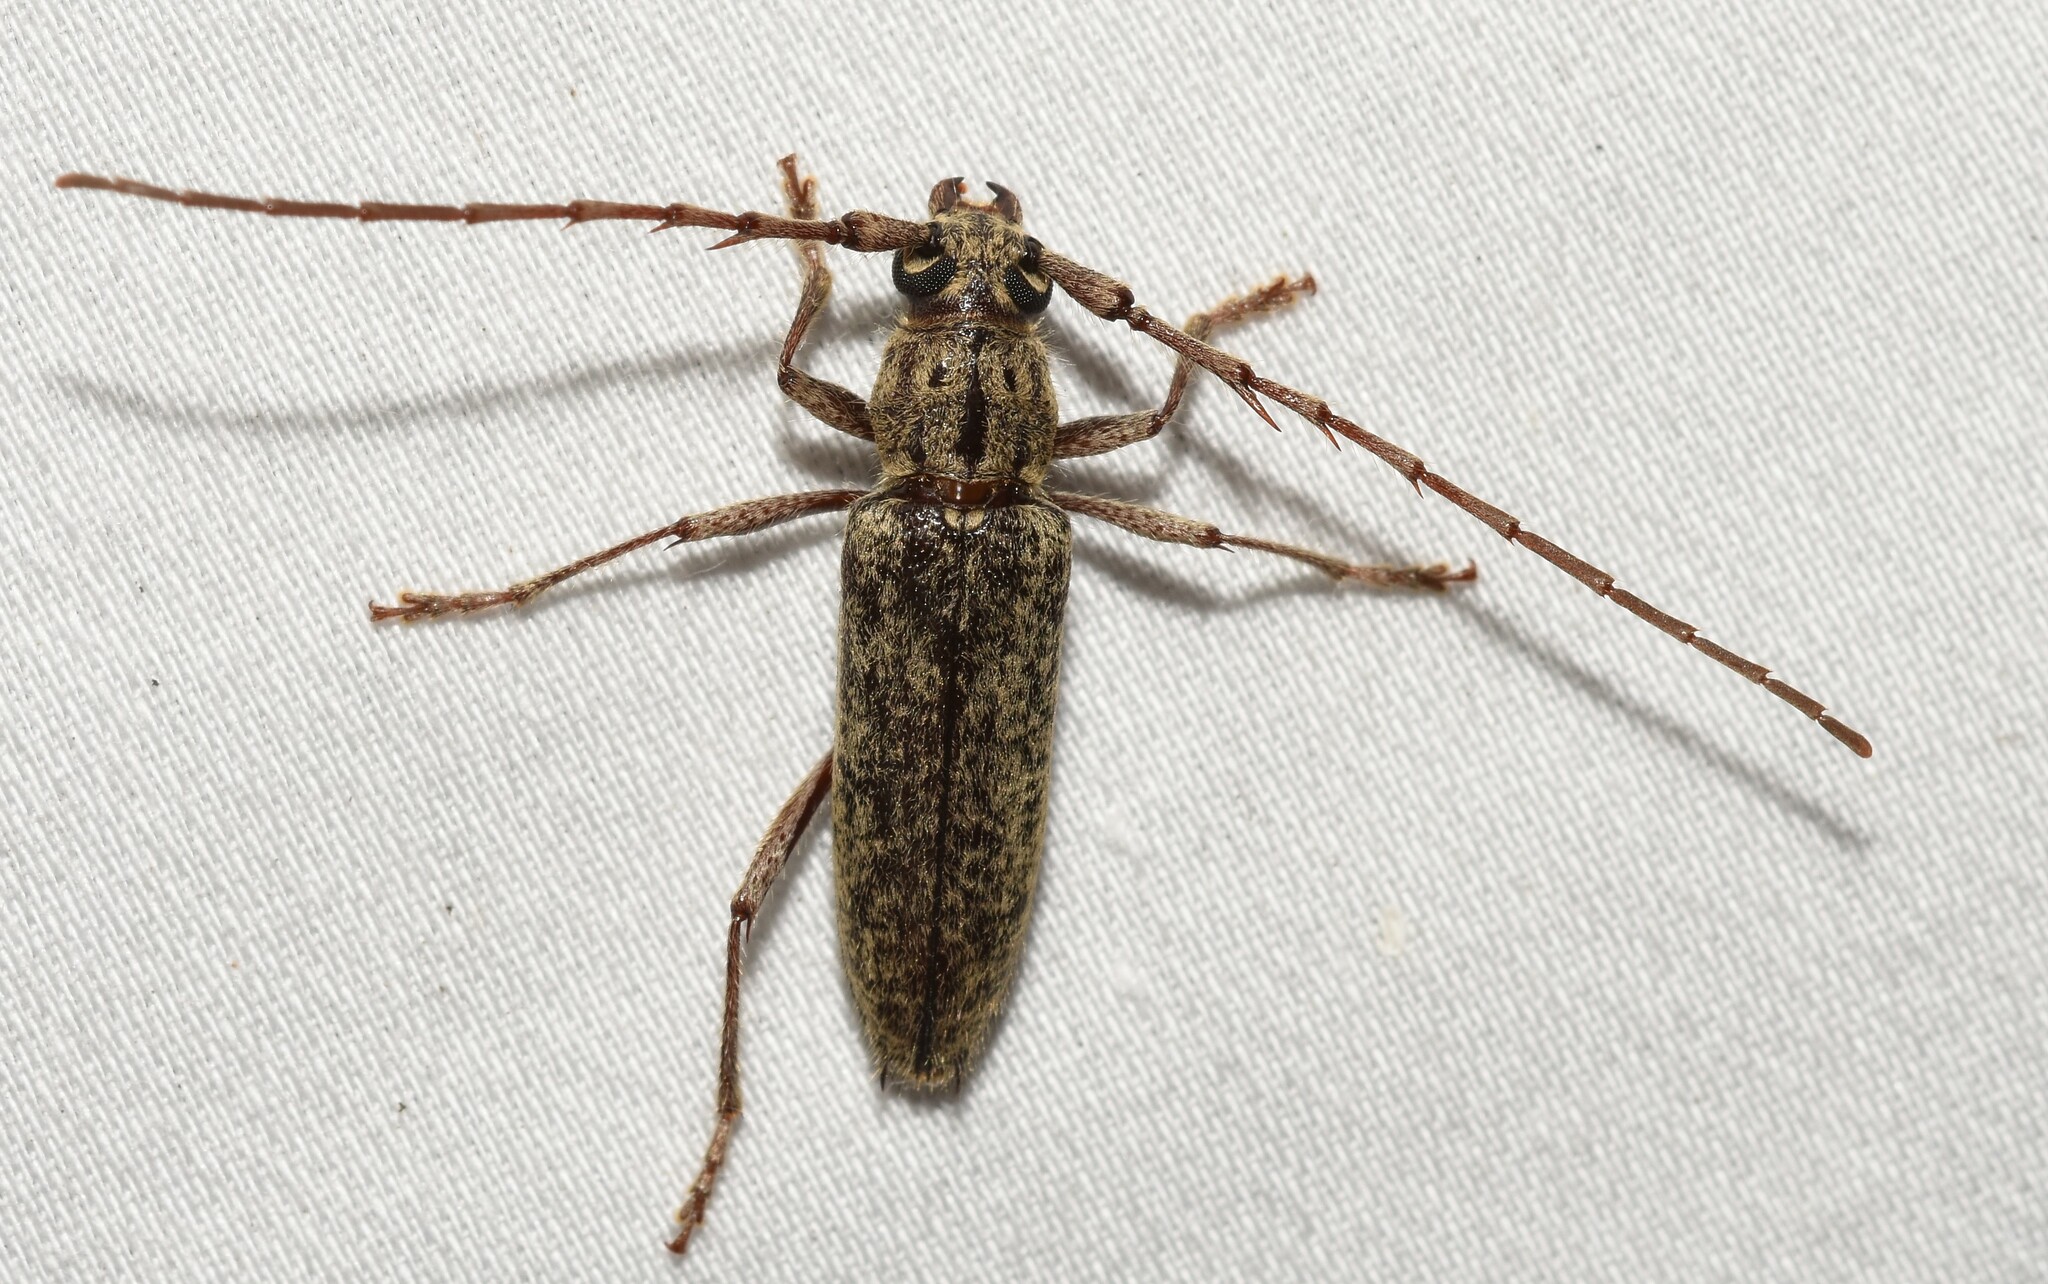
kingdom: Animalia
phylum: Arthropoda
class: Insecta
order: Coleoptera
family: Cerambycidae
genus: Elaphidion
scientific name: Elaphidion mucronatum
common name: Spined oak borer
